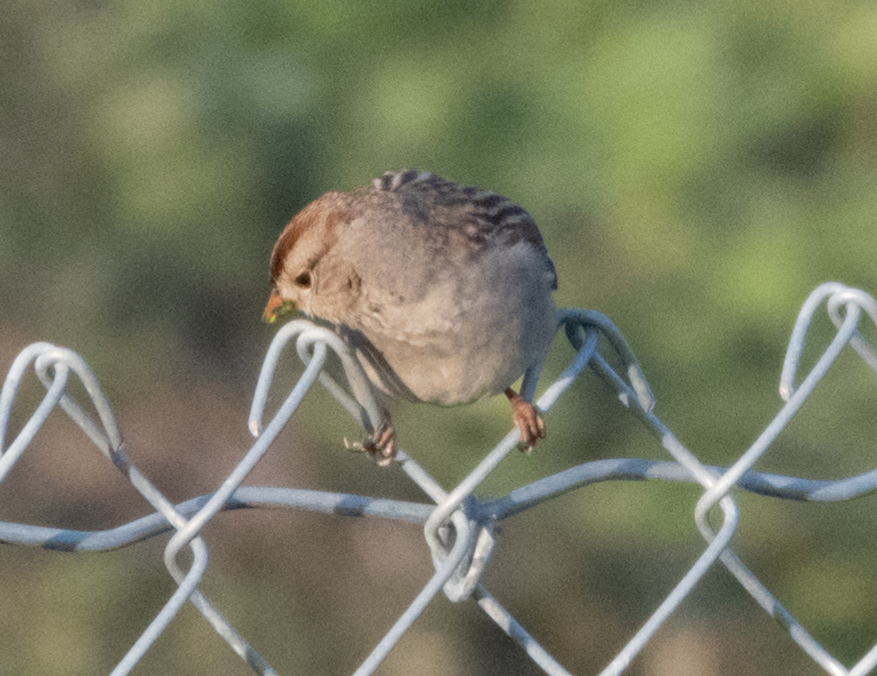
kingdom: Animalia
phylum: Chordata
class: Aves
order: Passeriformes
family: Passerellidae
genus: Zonotrichia
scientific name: Zonotrichia leucophrys
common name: White-crowned sparrow
